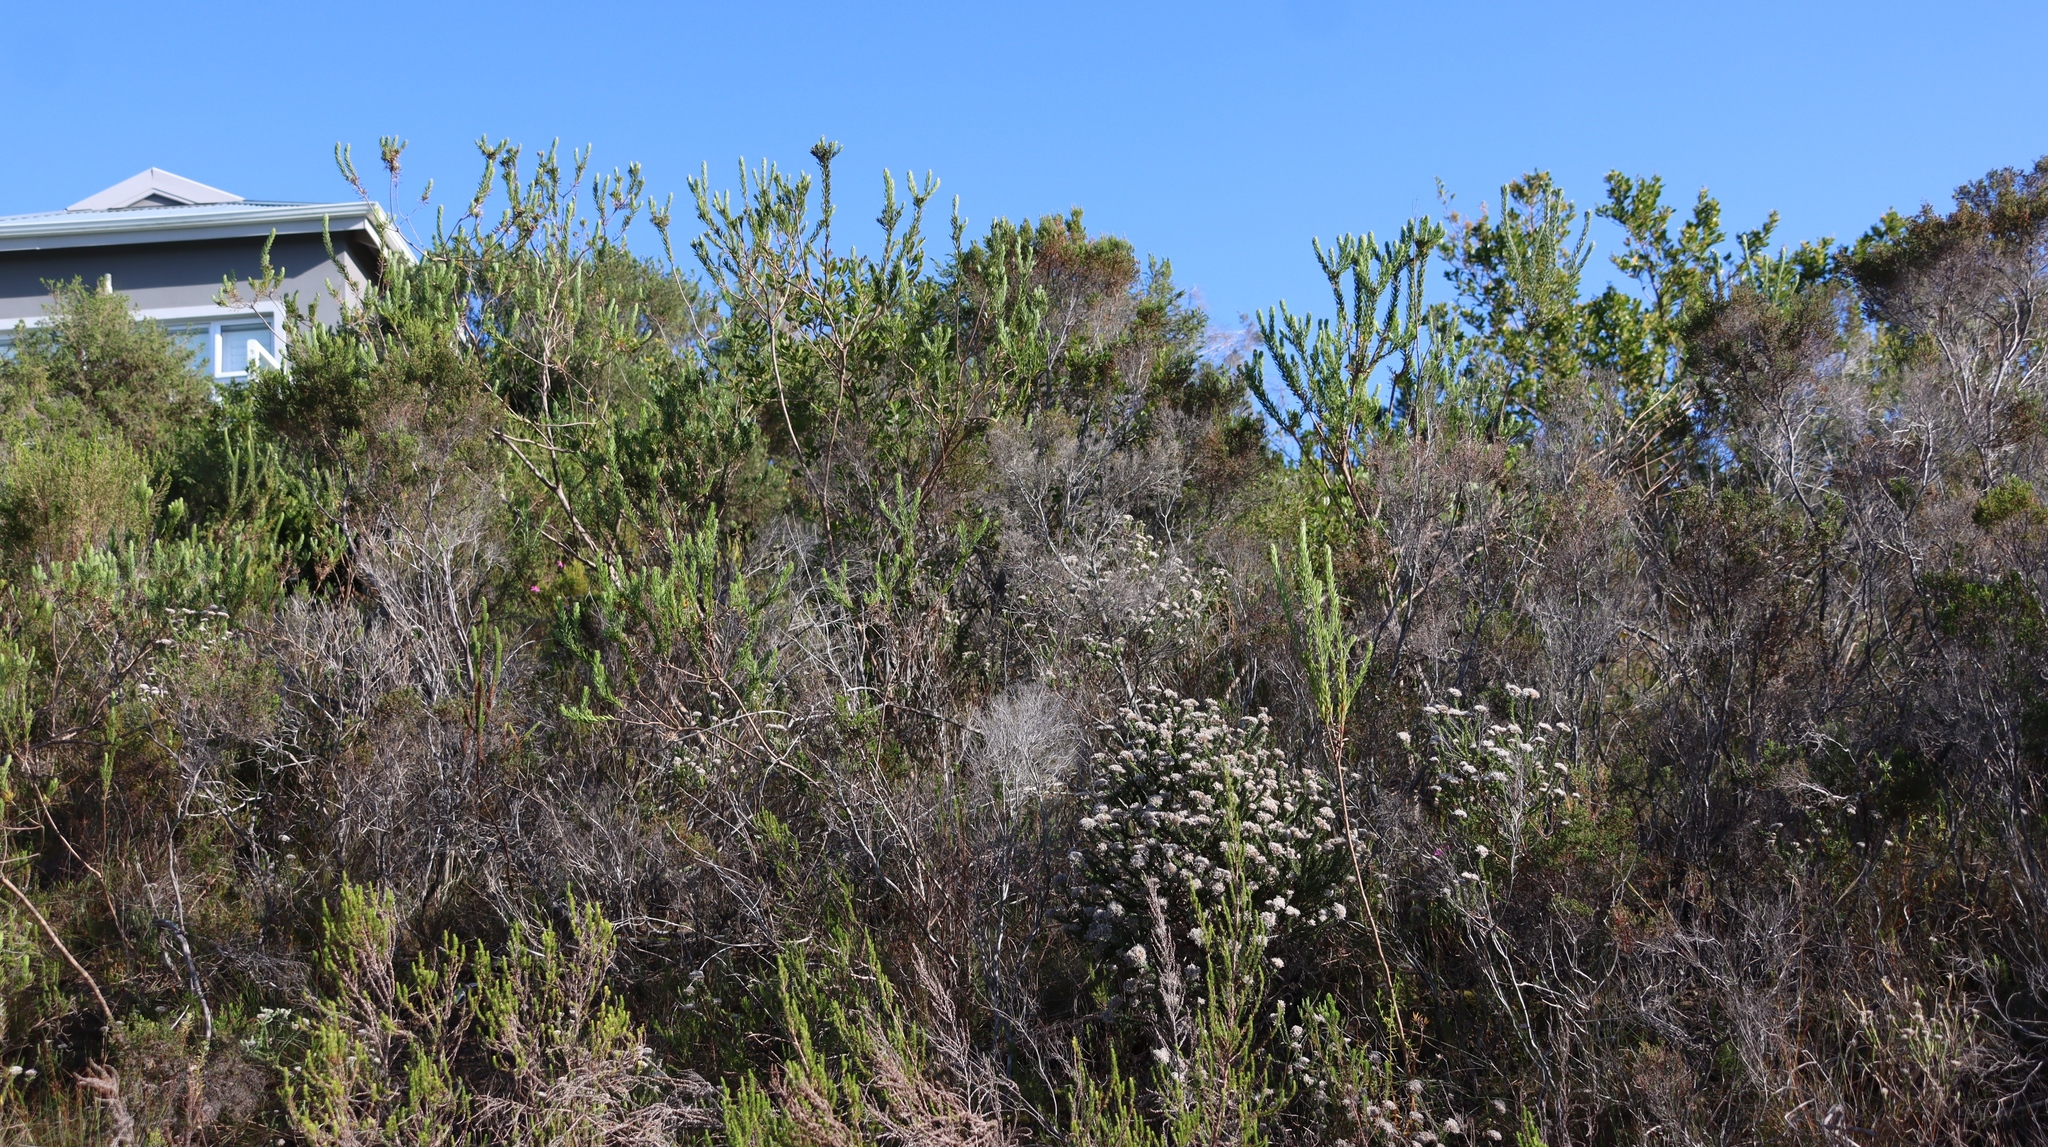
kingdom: Plantae
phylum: Tracheophyta
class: Magnoliopsida
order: Asterales
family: Asteraceae
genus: Oedera
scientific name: Oedera calycina
